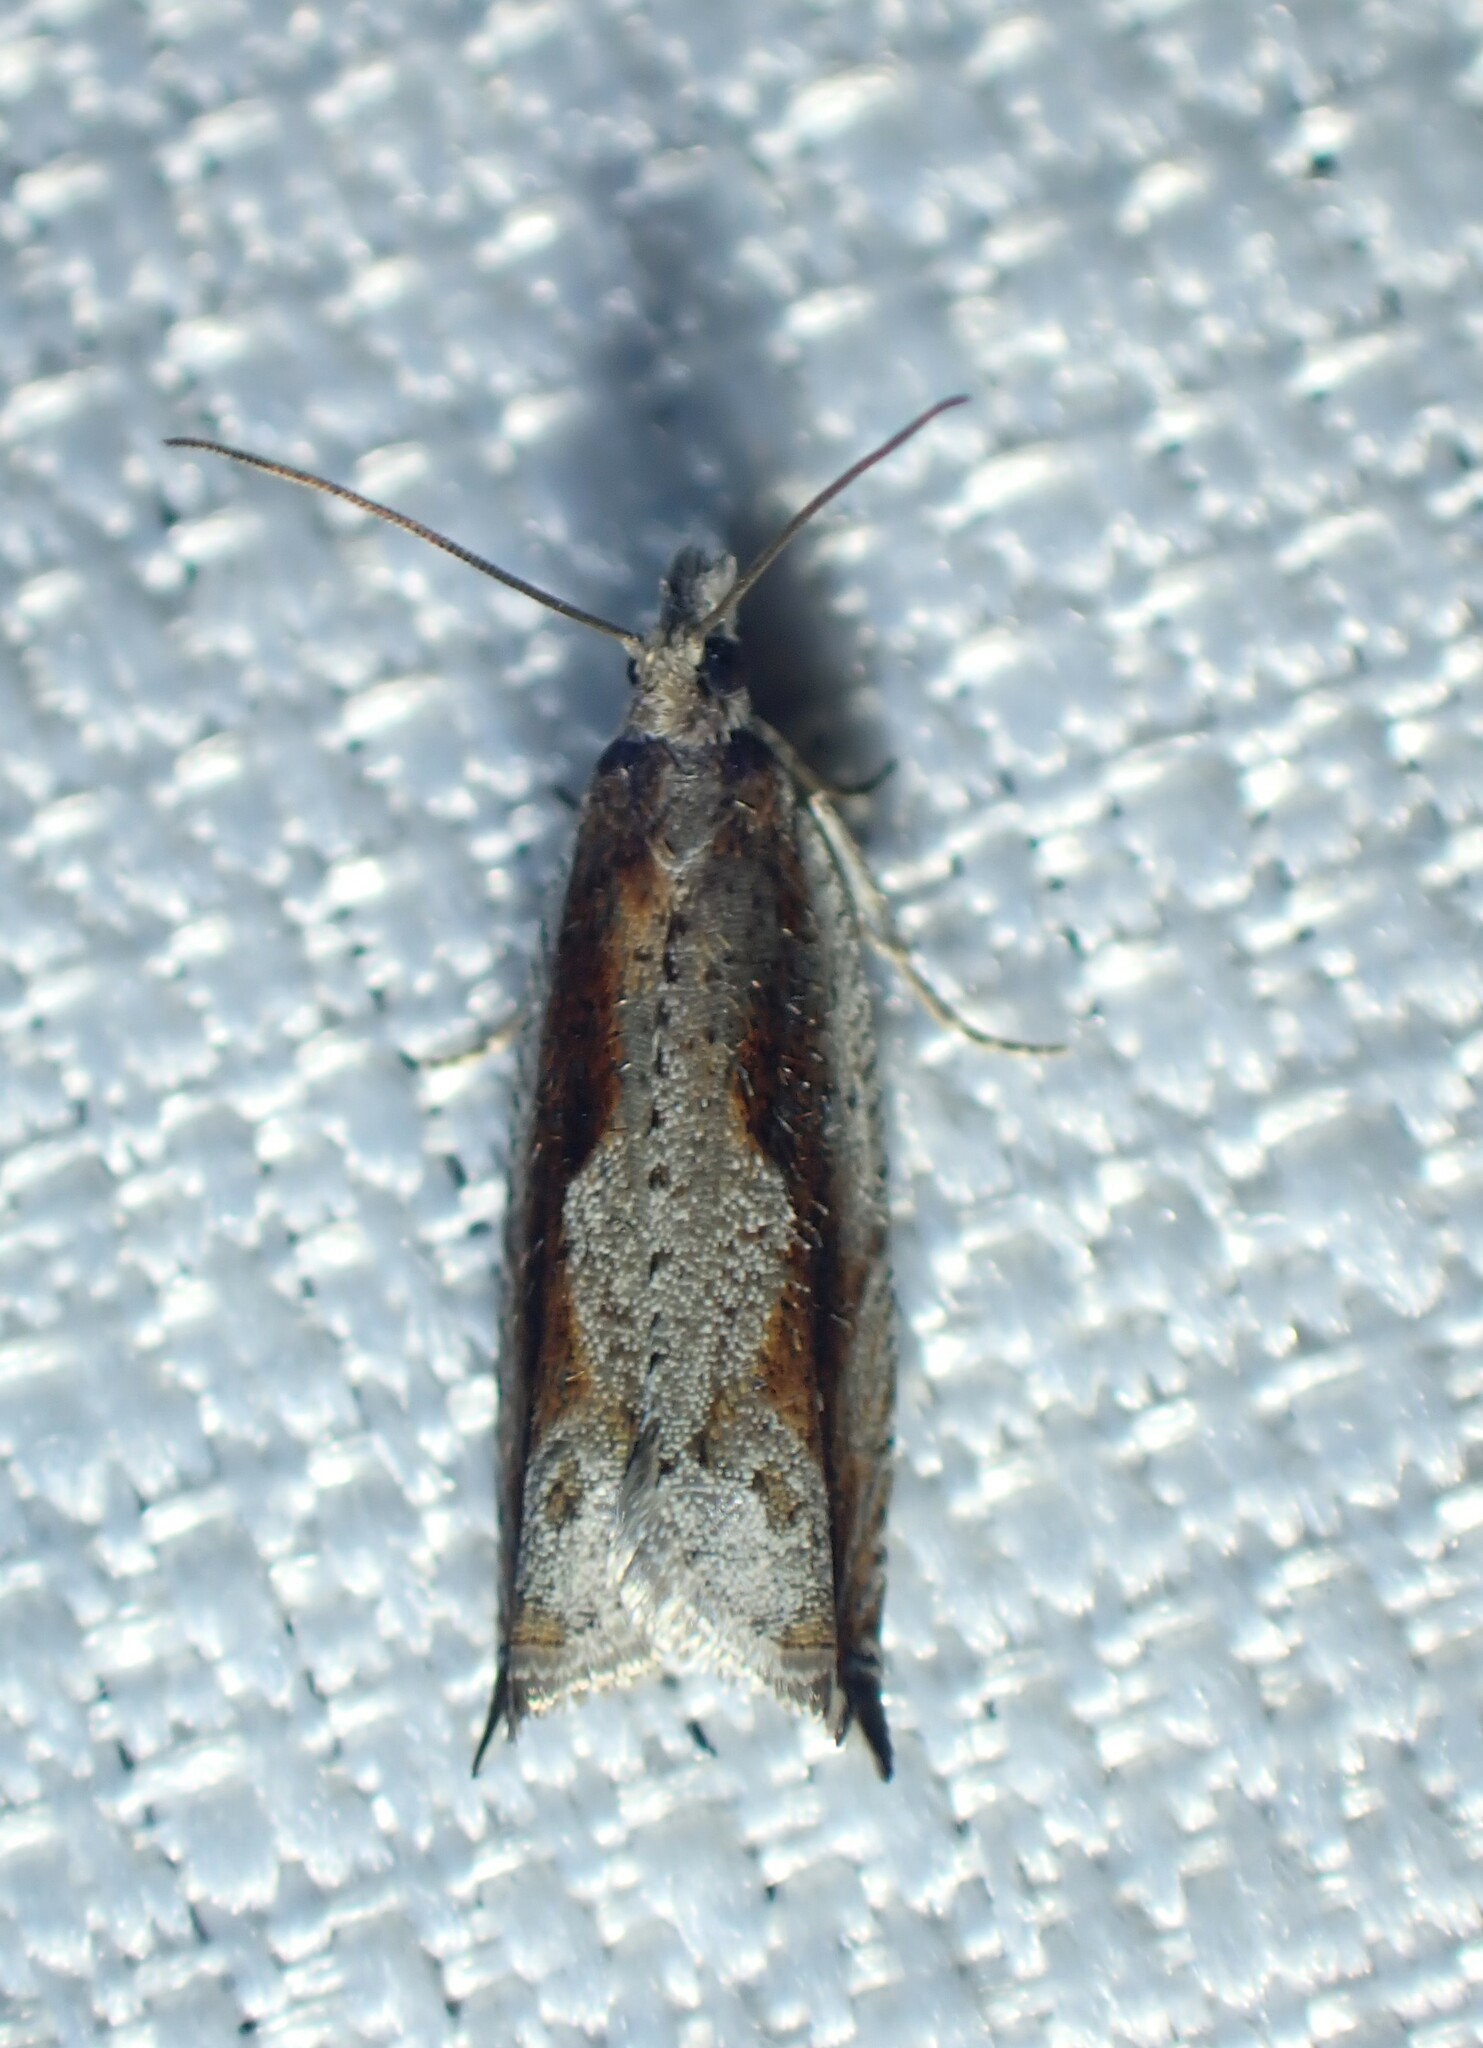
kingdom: Animalia
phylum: Arthropoda
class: Insecta
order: Lepidoptera
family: Tortricidae
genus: Ancylis
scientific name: Ancylis goodelliana
